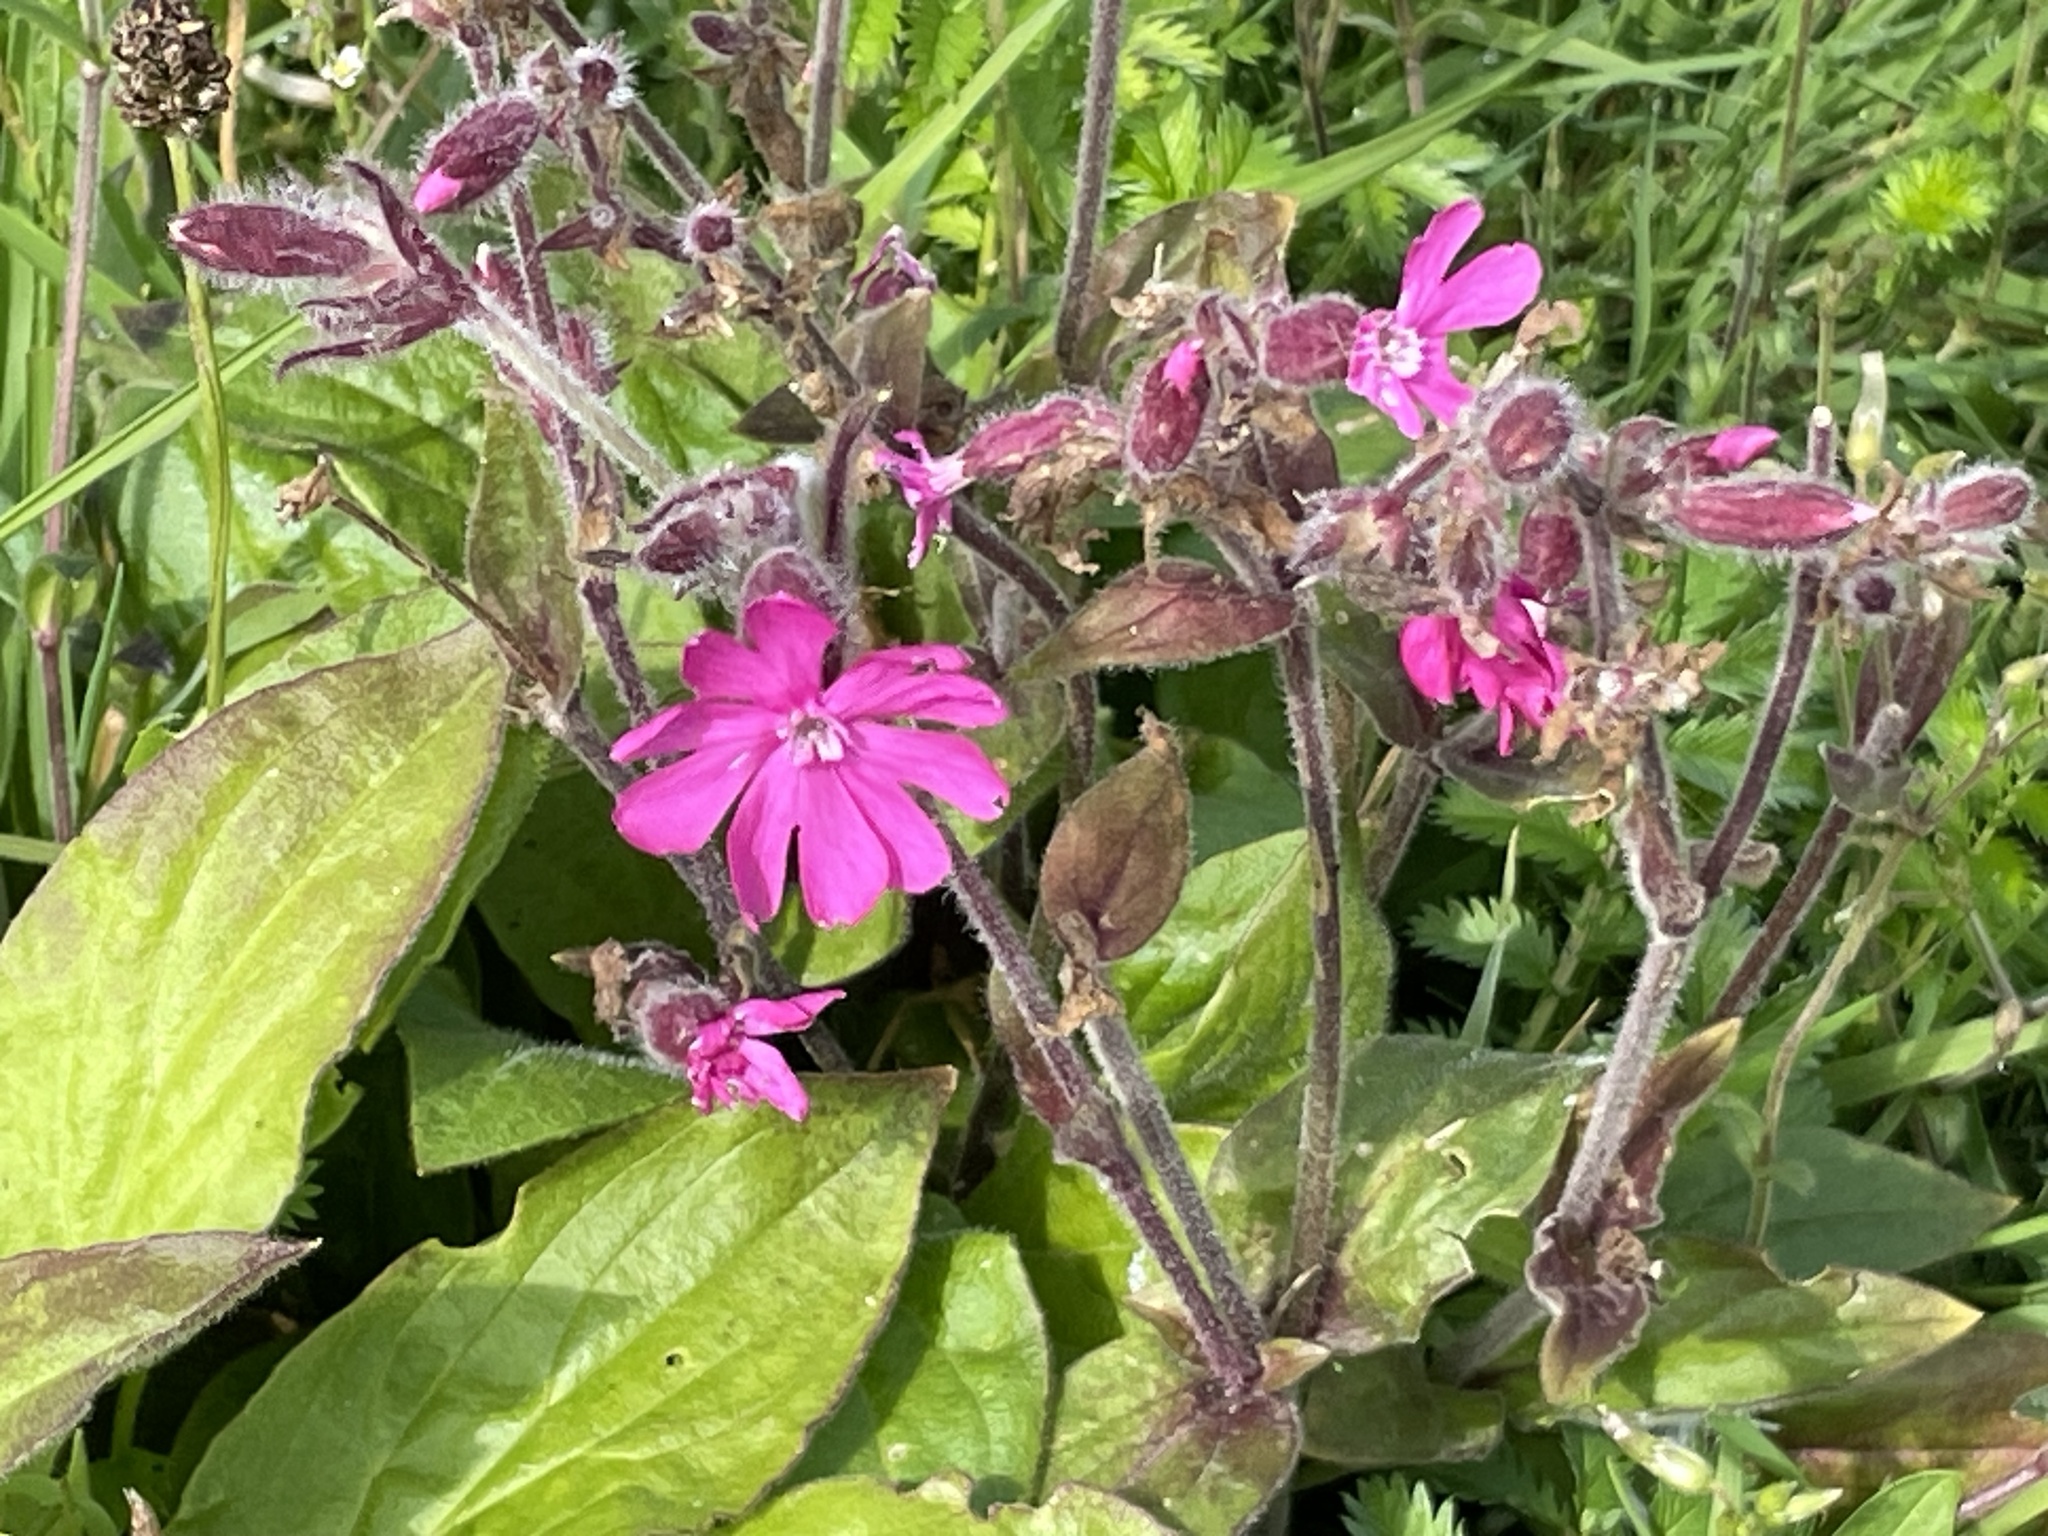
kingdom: Plantae
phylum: Tracheophyta
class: Magnoliopsida
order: Caryophyllales
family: Caryophyllaceae
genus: Silene
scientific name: Silene dioica
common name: Red campion
